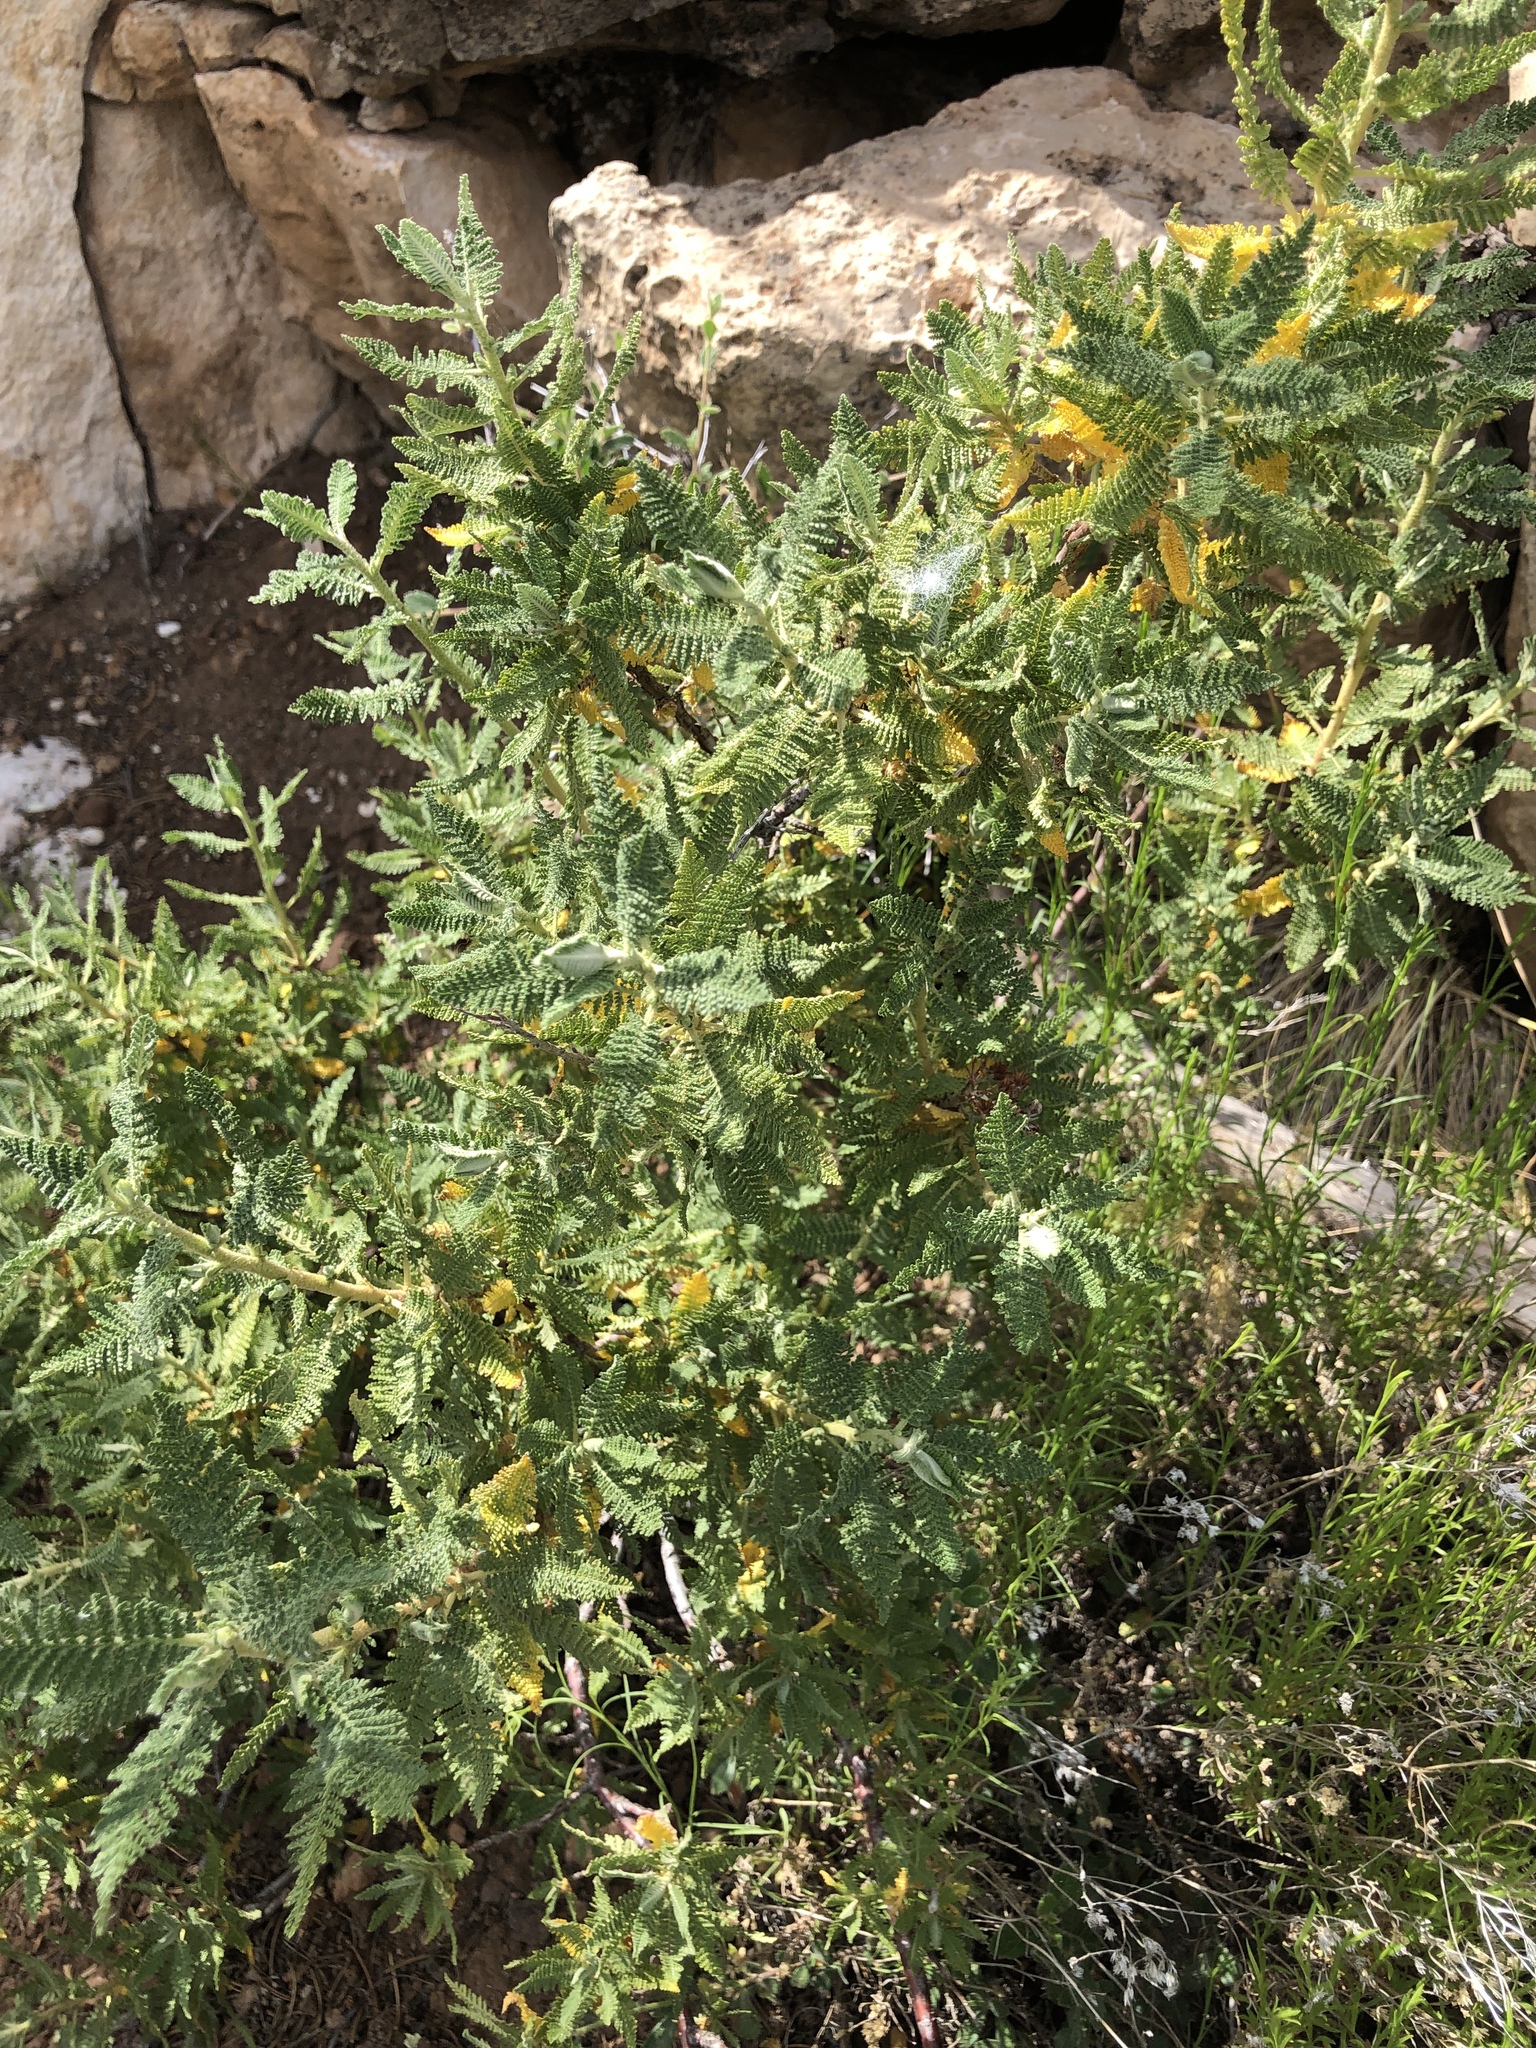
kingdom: Plantae
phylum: Tracheophyta
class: Magnoliopsida
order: Rosales
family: Rosaceae
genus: Chamaebatiaria
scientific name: Chamaebatiaria millefolium
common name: Fernbush
